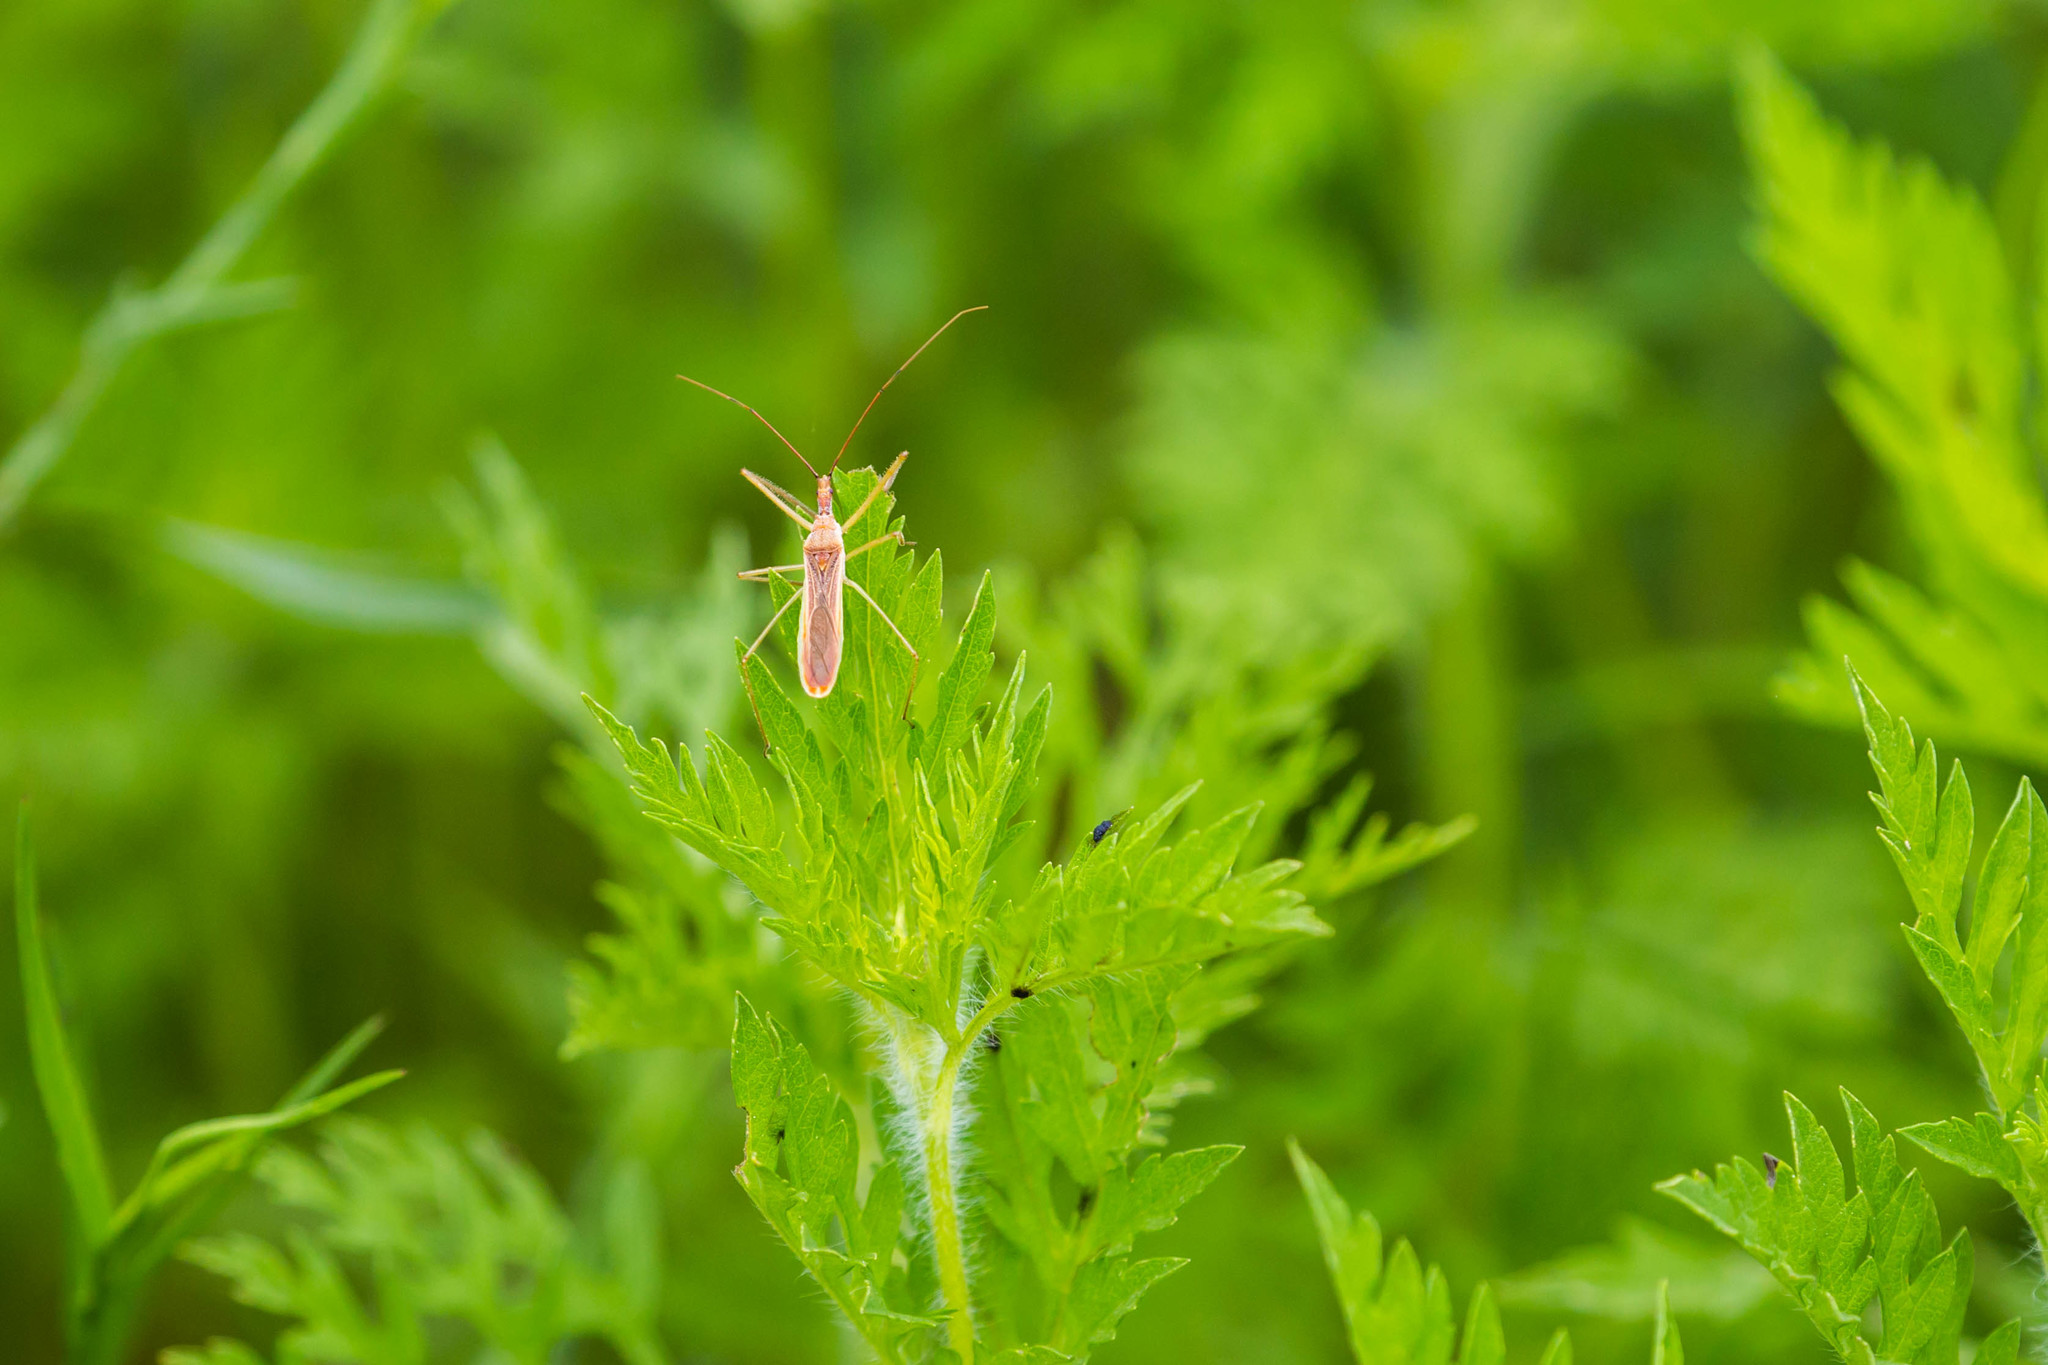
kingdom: Animalia
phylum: Arthropoda
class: Insecta
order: Hemiptera
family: Reduviidae
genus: Zelus
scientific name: Zelus cervicalis
